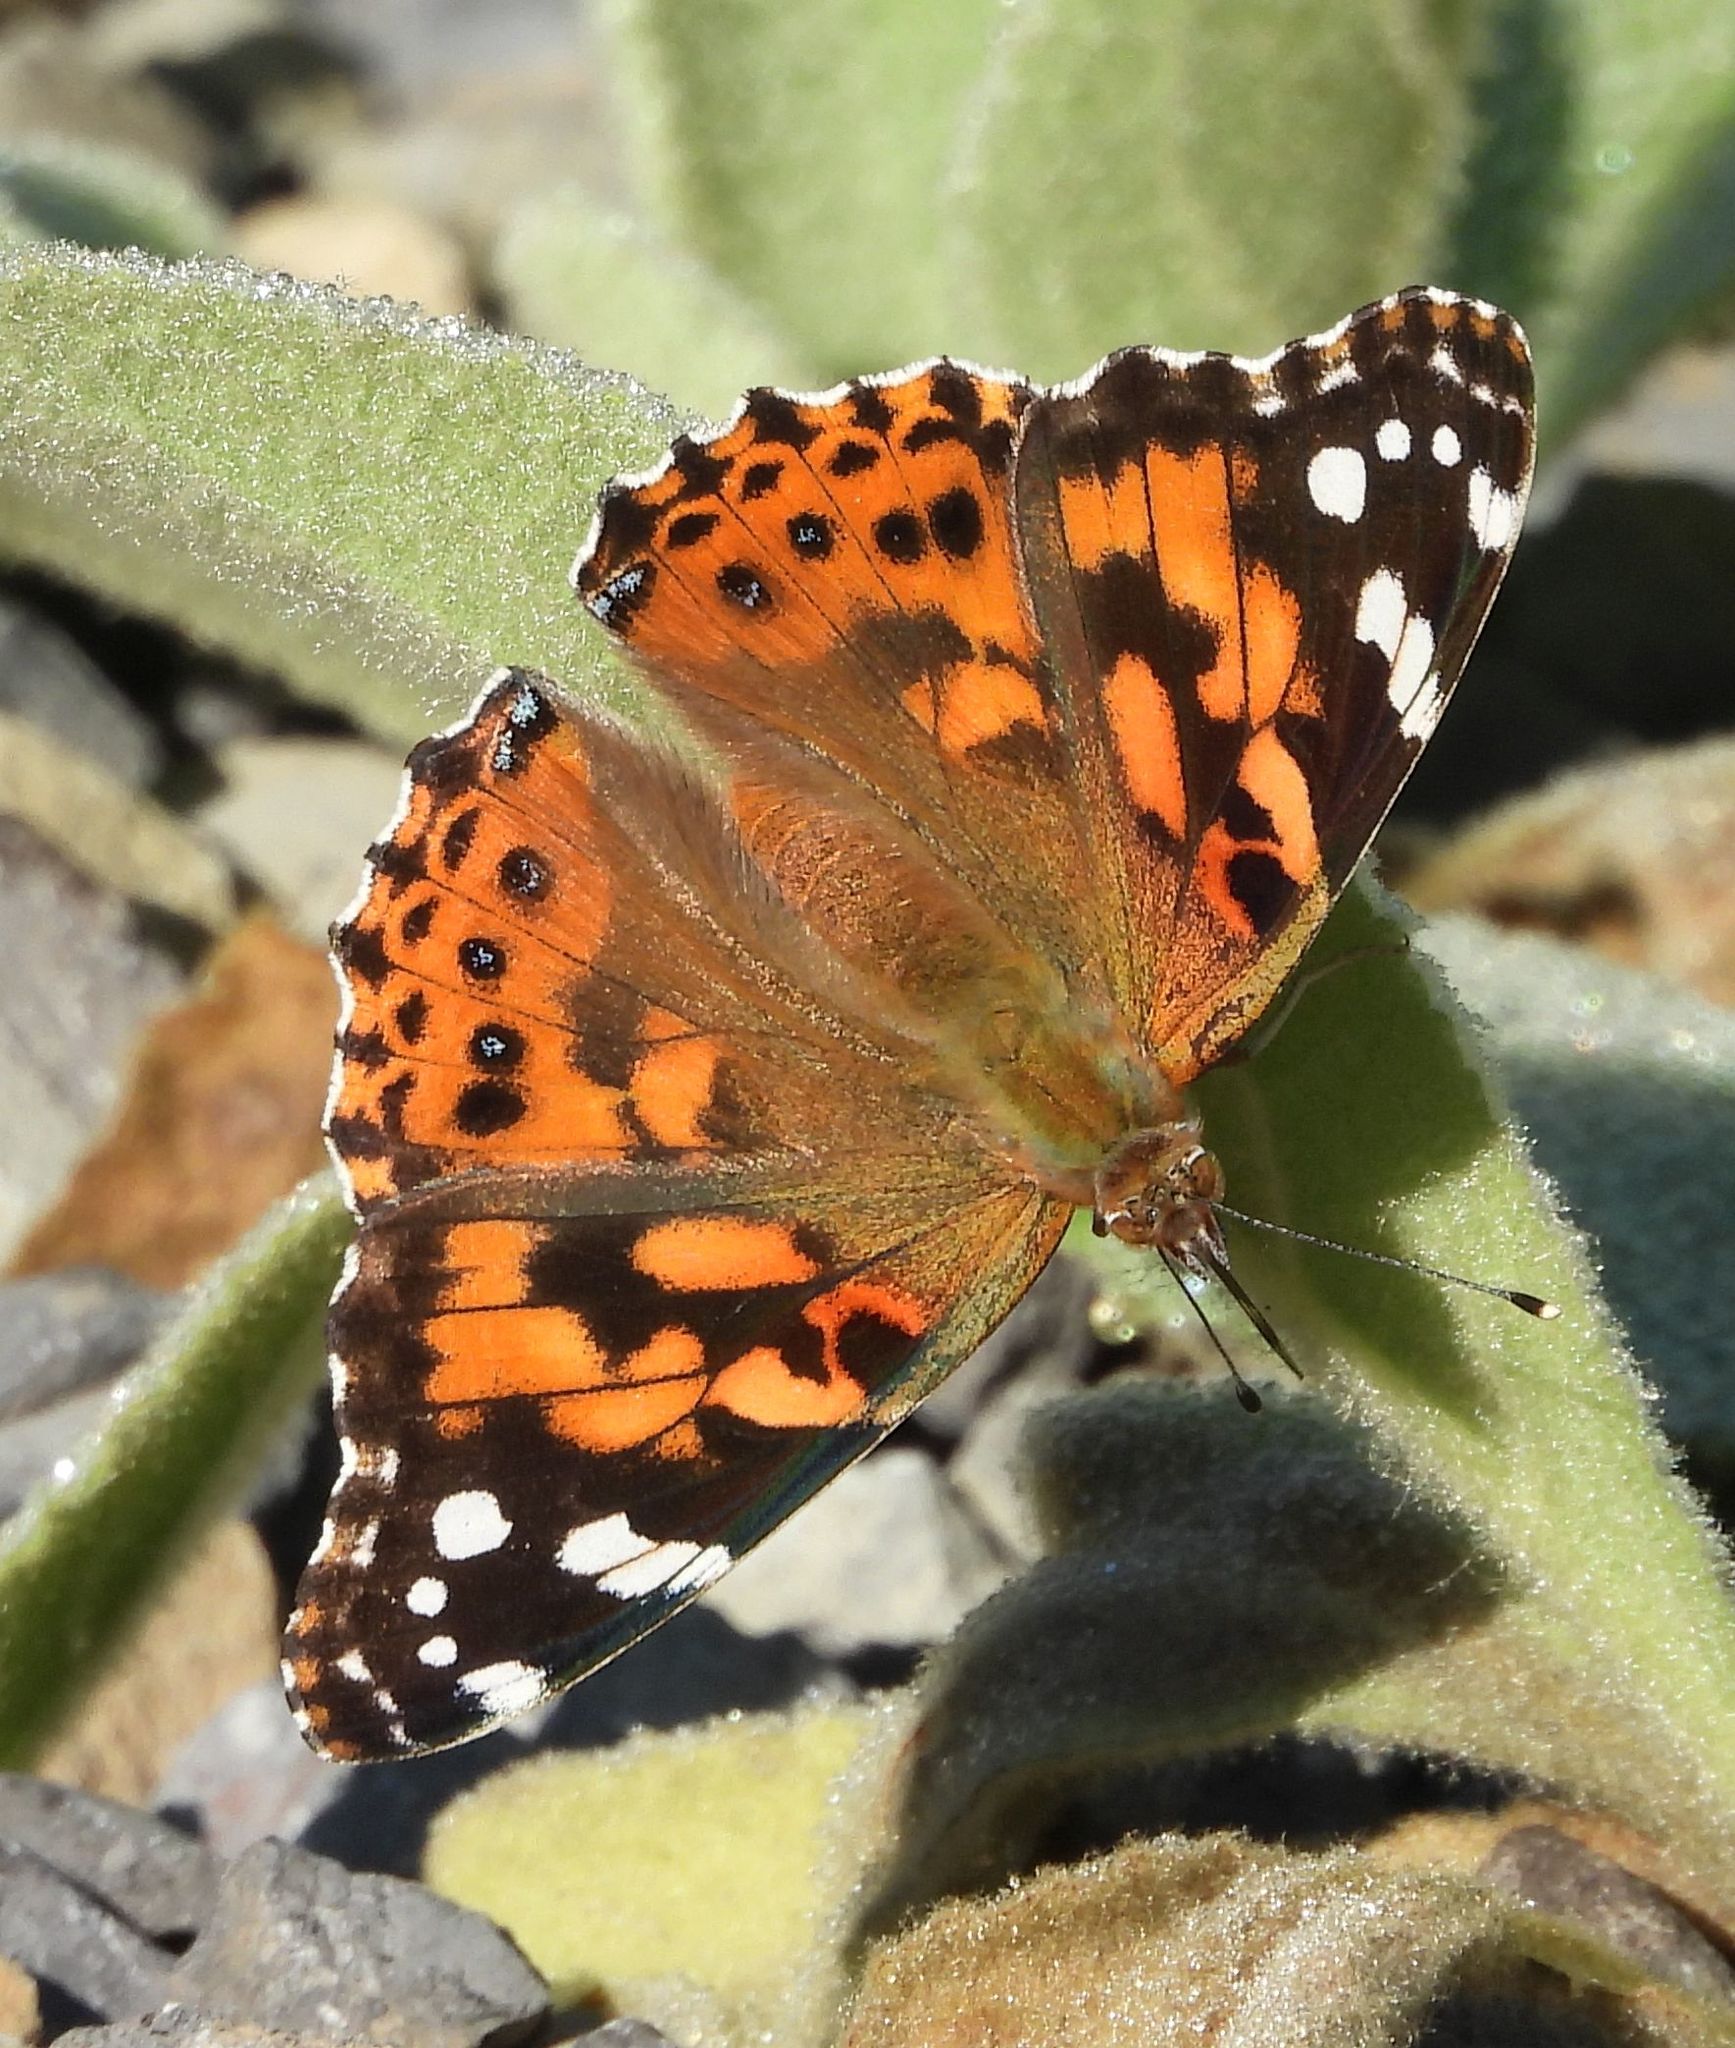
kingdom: Animalia
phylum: Arthropoda
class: Insecta
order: Lepidoptera
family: Nymphalidae
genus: Vanessa
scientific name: Vanessa cardui
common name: Painted lady
